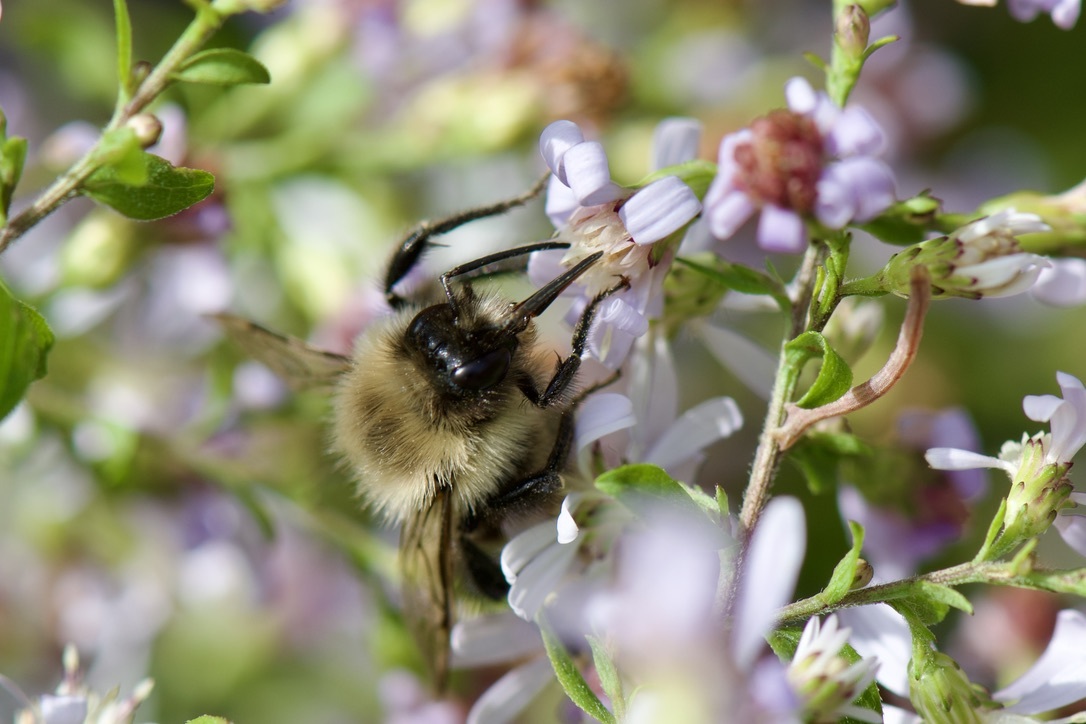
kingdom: Animalia
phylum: Arthropoda
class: Insecta
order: Hymenoptera
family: Apidae
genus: Bombus
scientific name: Bombus impatiens
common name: Common eastern bumble bee
